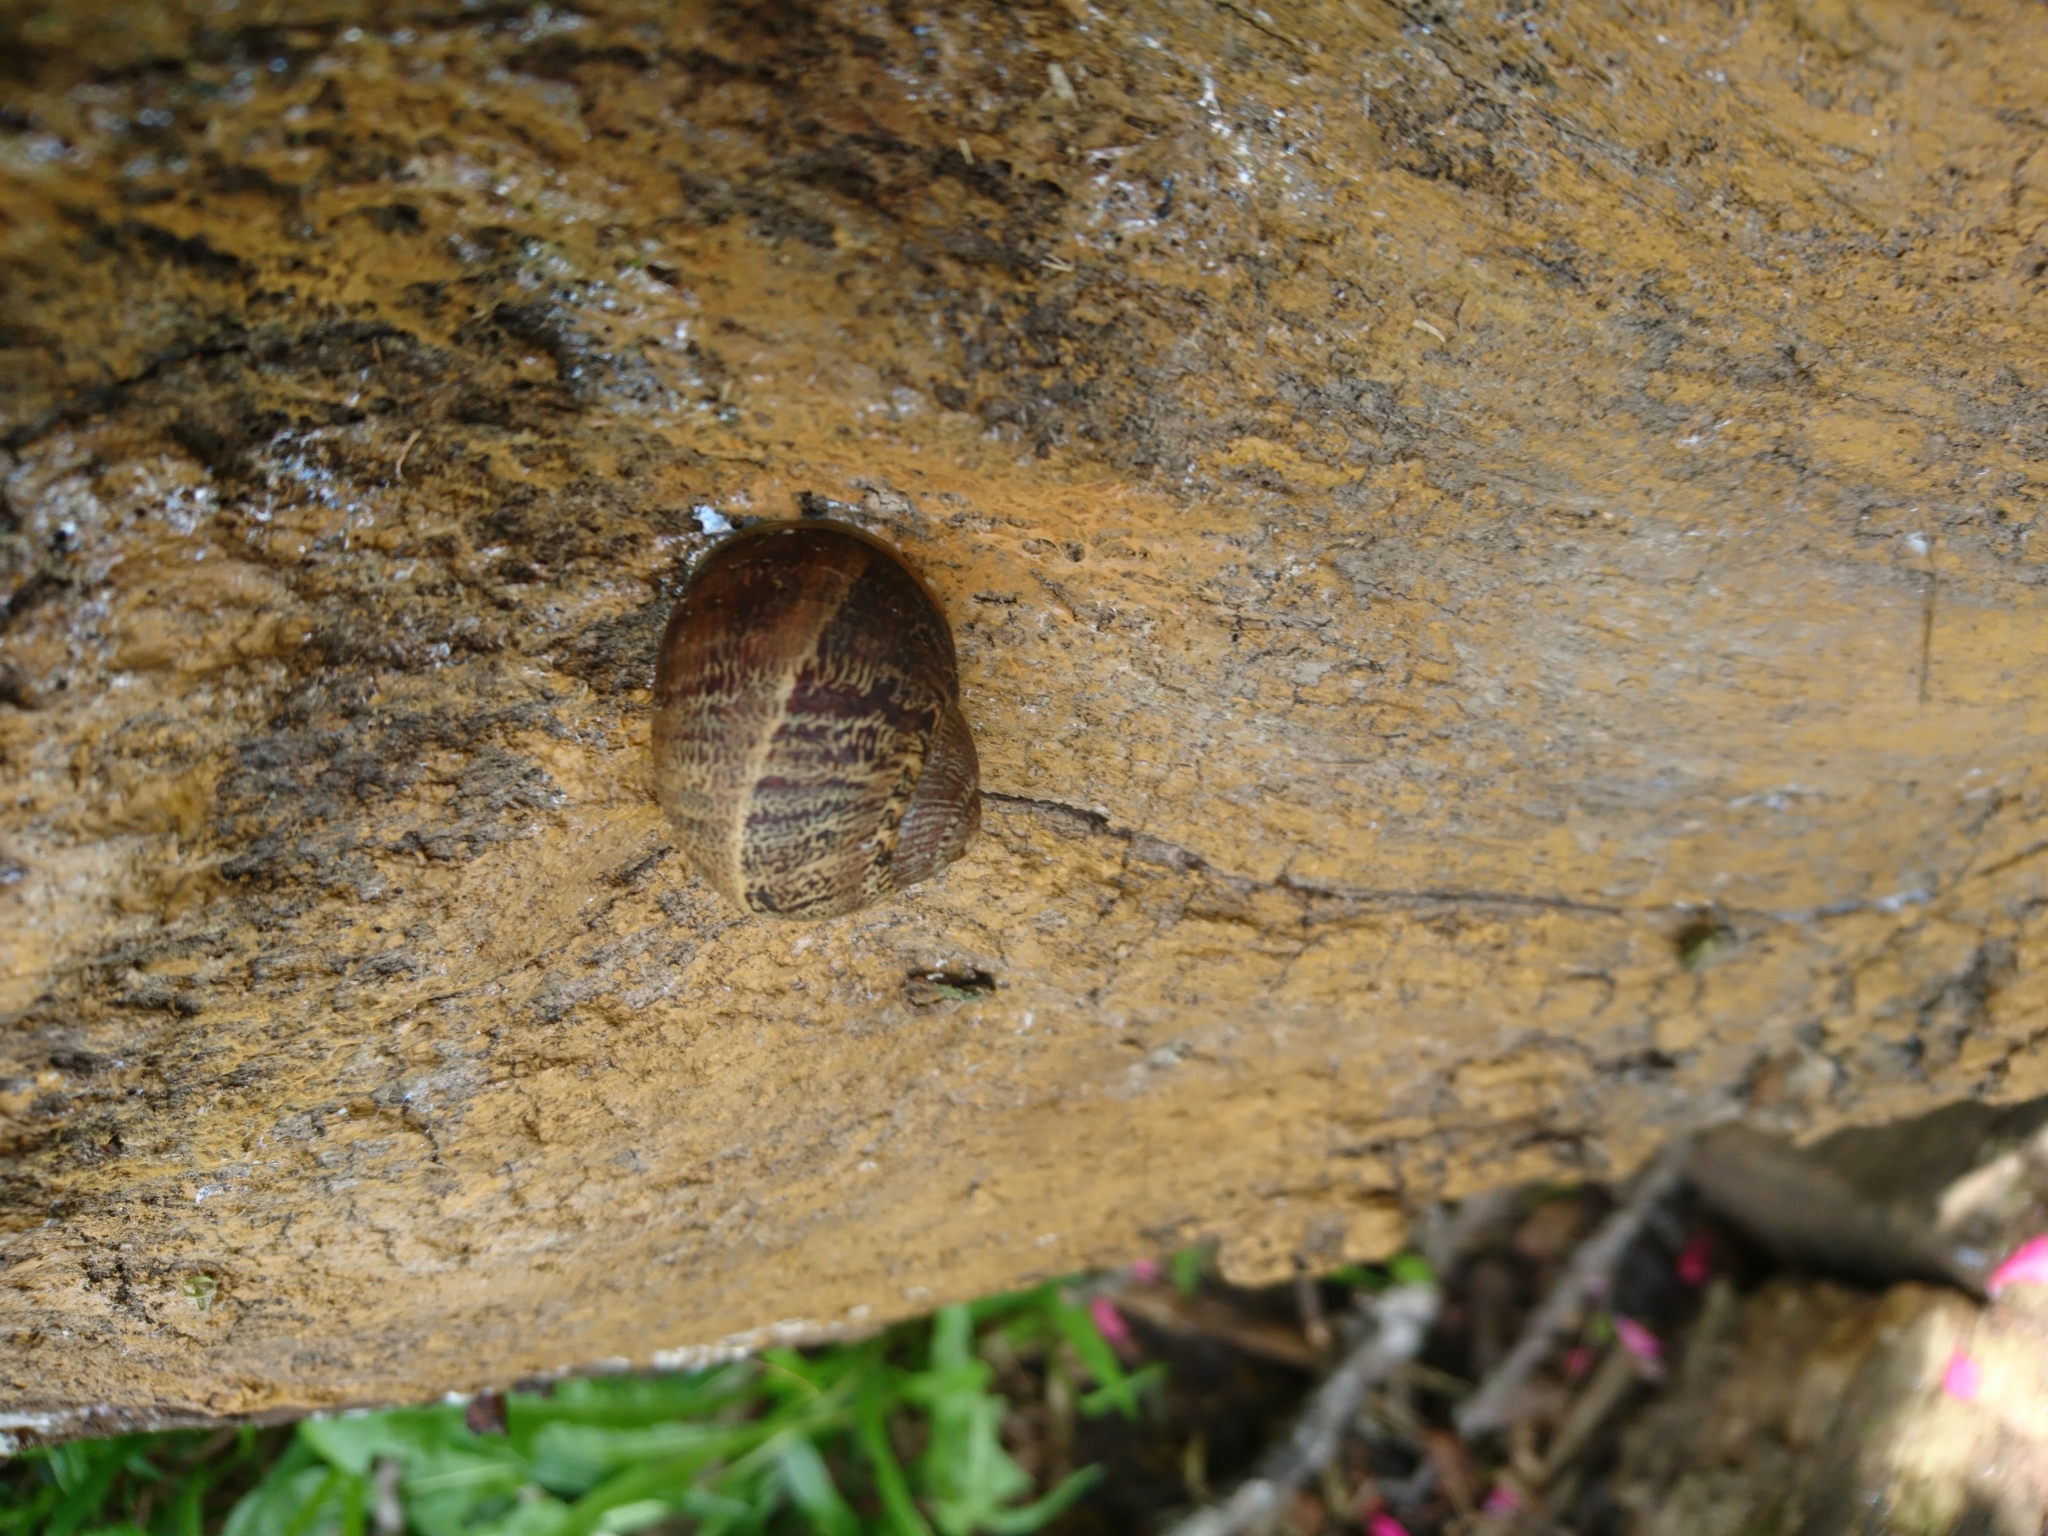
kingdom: Animalia
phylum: Mollusca
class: Gastropoda
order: Stylommatophora
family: Helicidae
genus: Cornu
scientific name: Cornu aspersum
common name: Brown garden snail
